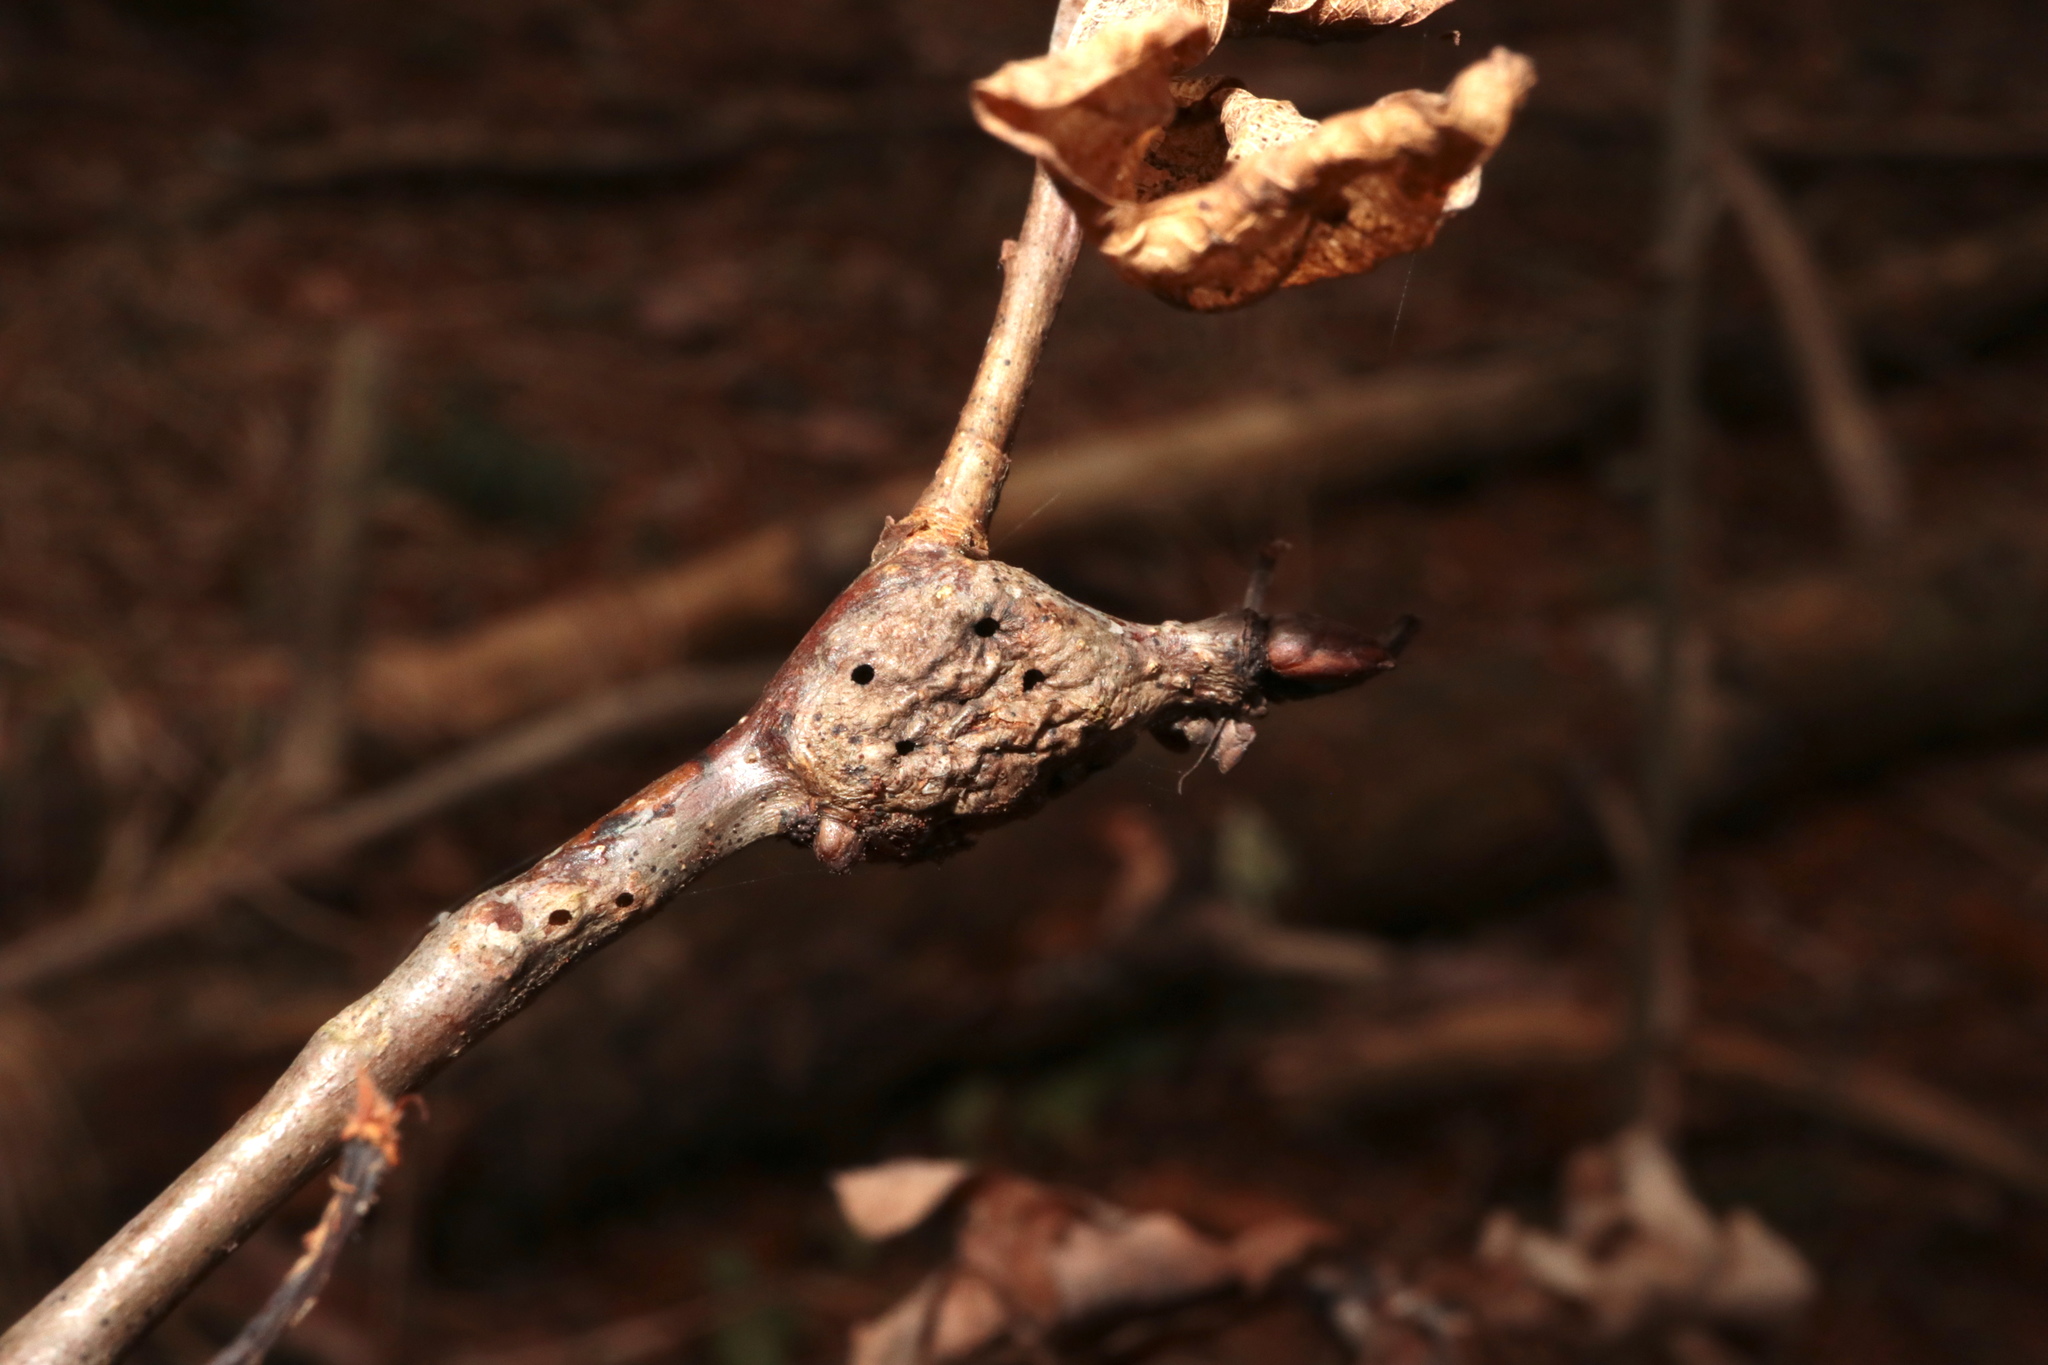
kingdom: Animalia
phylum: Arthropoda
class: Insecta
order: Hymenoptera
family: Cynipidae
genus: Neuroterus
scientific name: Neuroterus quercusbaccarum
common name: Common spangle gall
